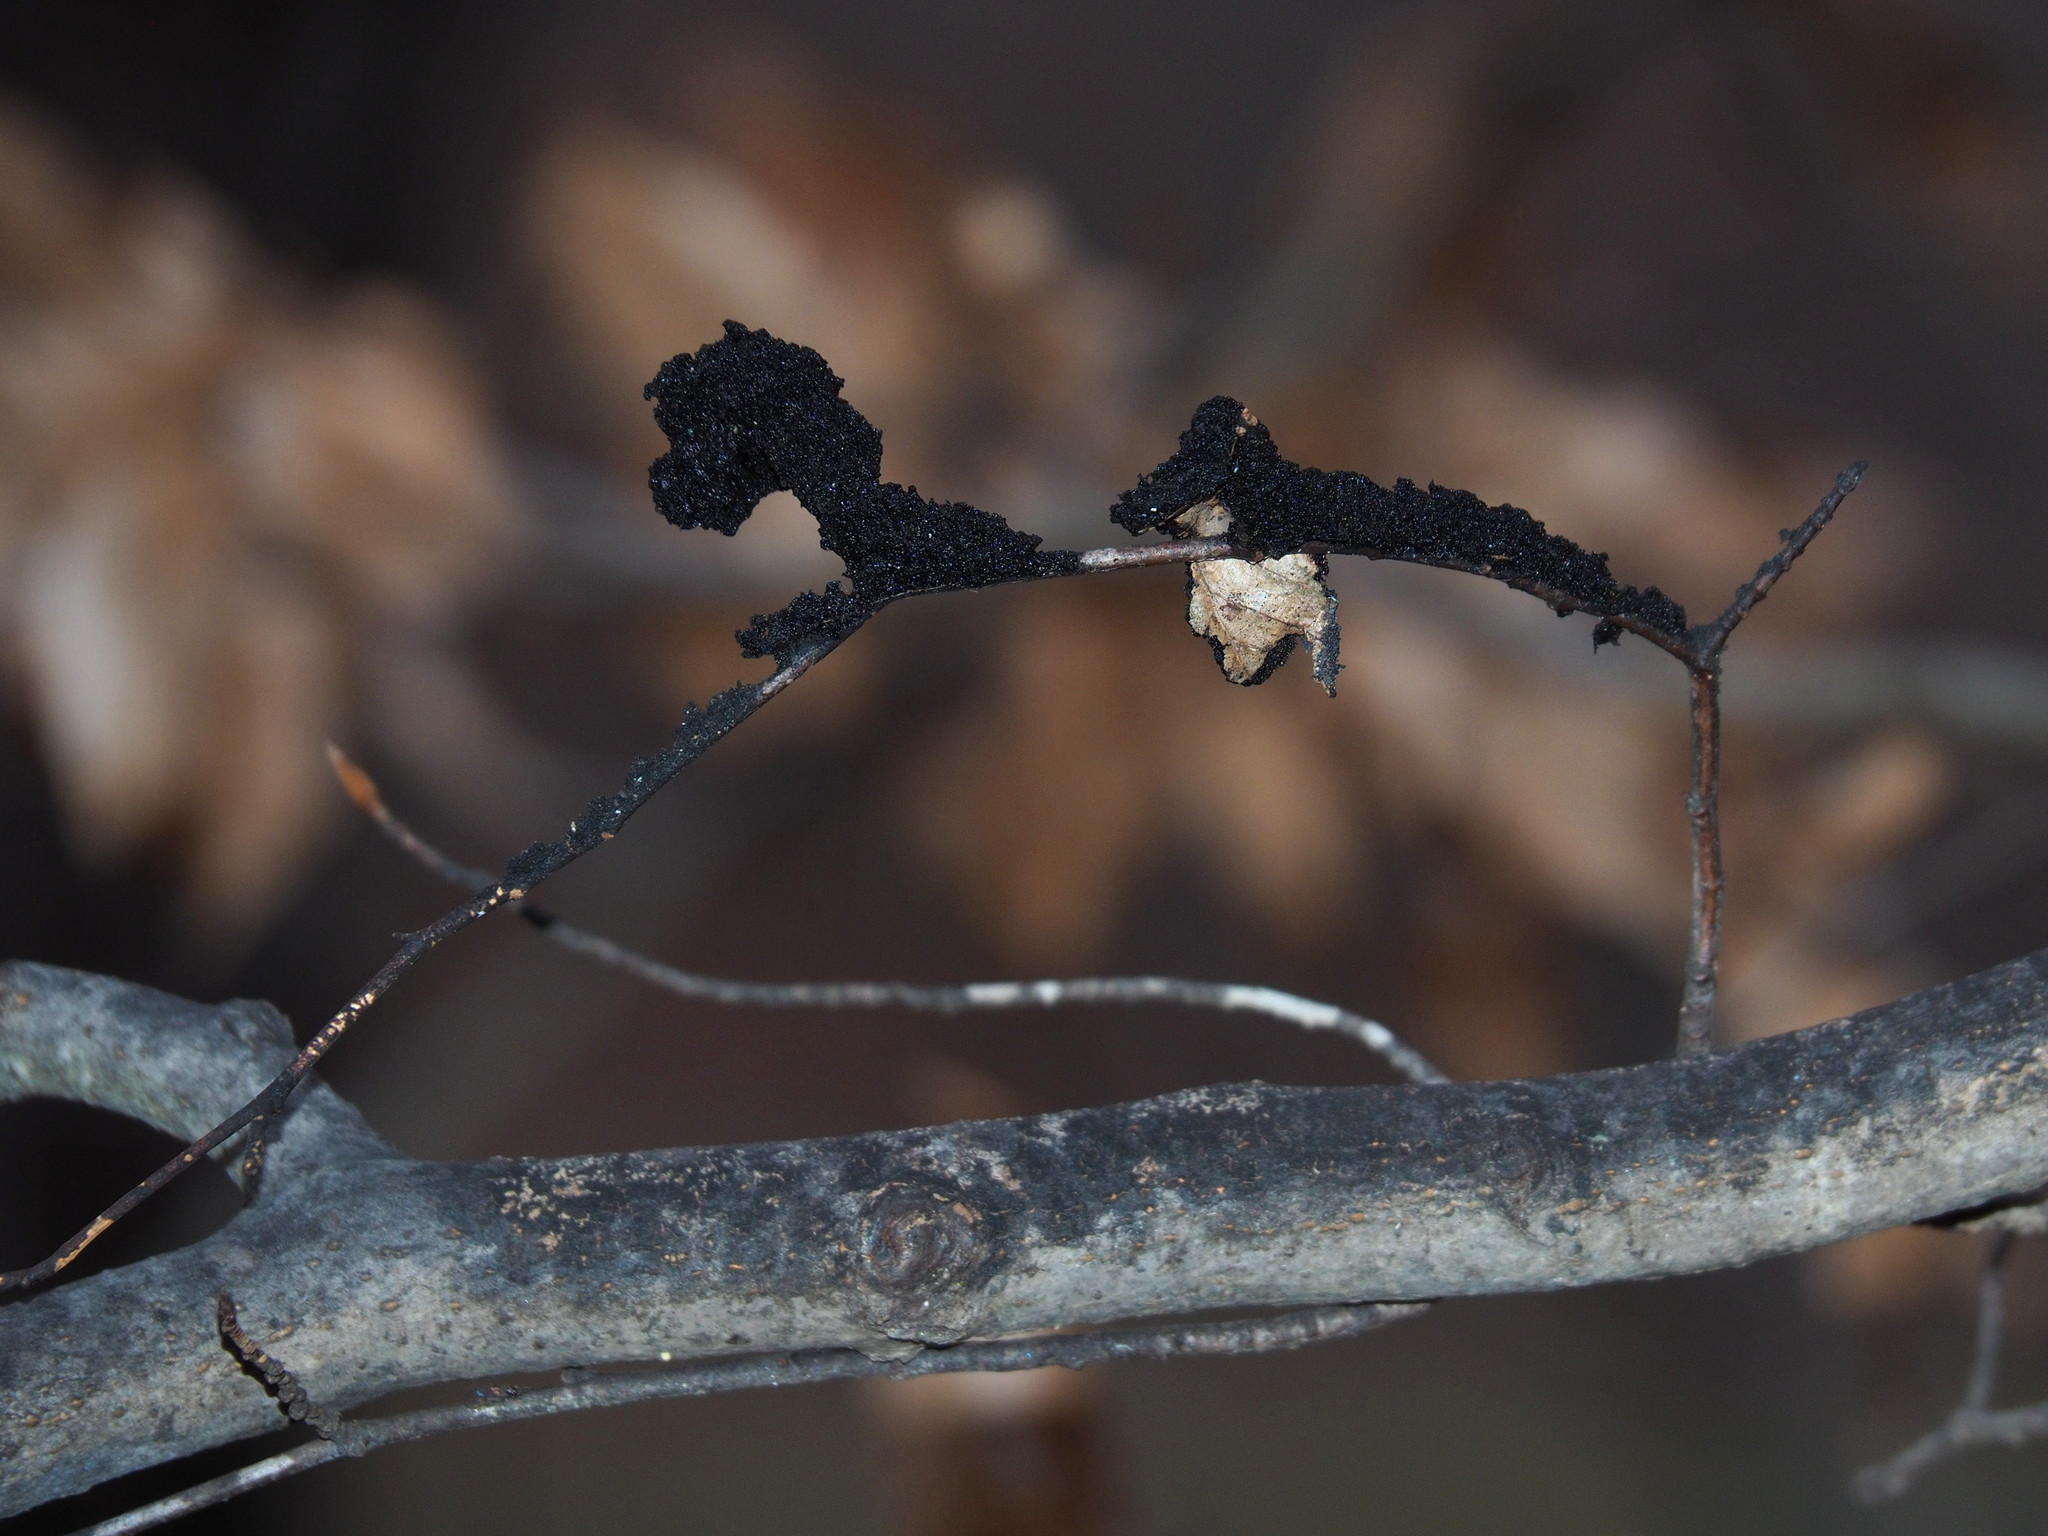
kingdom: Fungi
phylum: Ascomycota
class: Dothideomycetes
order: Capnodiales
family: Capnodiaceae
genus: Scorias
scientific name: Scorias spongiosa
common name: Black sooty mold
